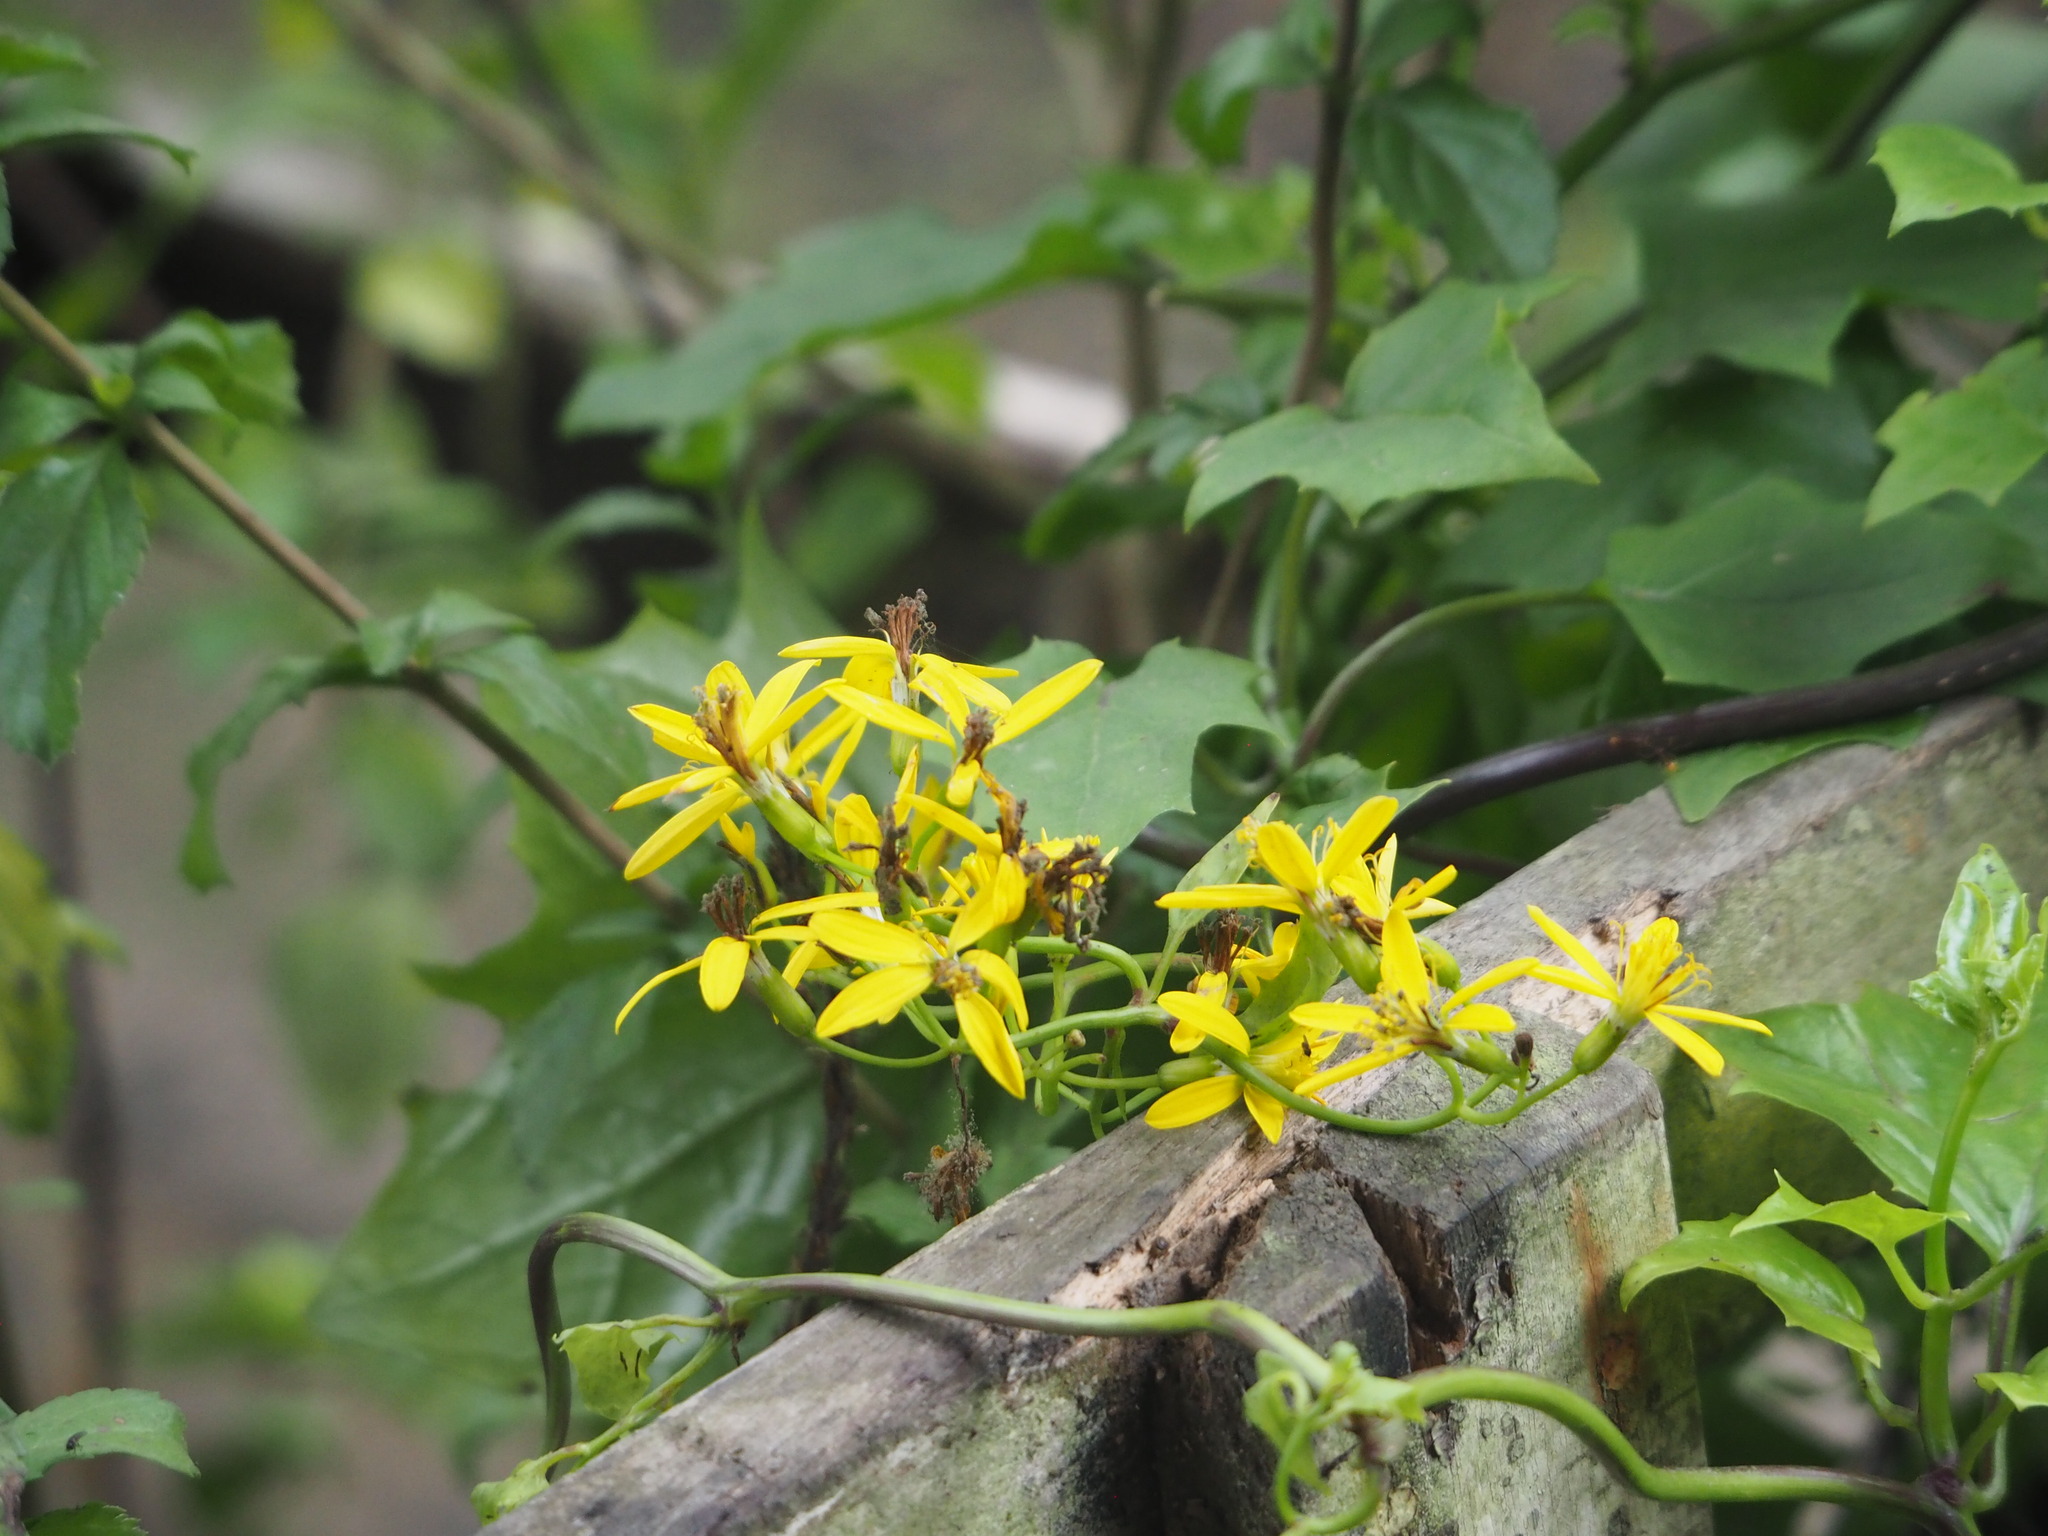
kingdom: Plantae
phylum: Tracheophyta
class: Magnoliopsida
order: Asterales
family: Asteraceae
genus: Senecio
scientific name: Senecio tamoides
